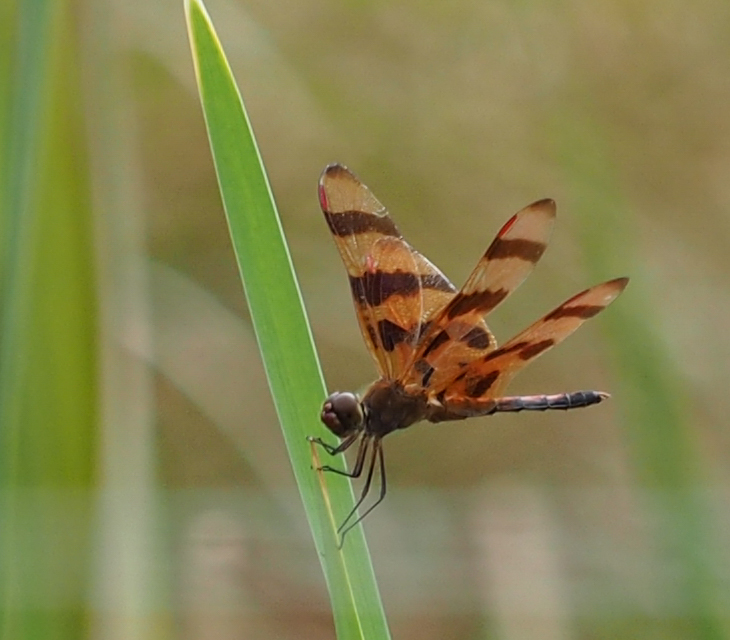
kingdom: Animalia
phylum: Arthropoda
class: Insecta
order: Odonata
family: Libellulidae
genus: Celithemis
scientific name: Celithemis eponina
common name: Halloween pennant
